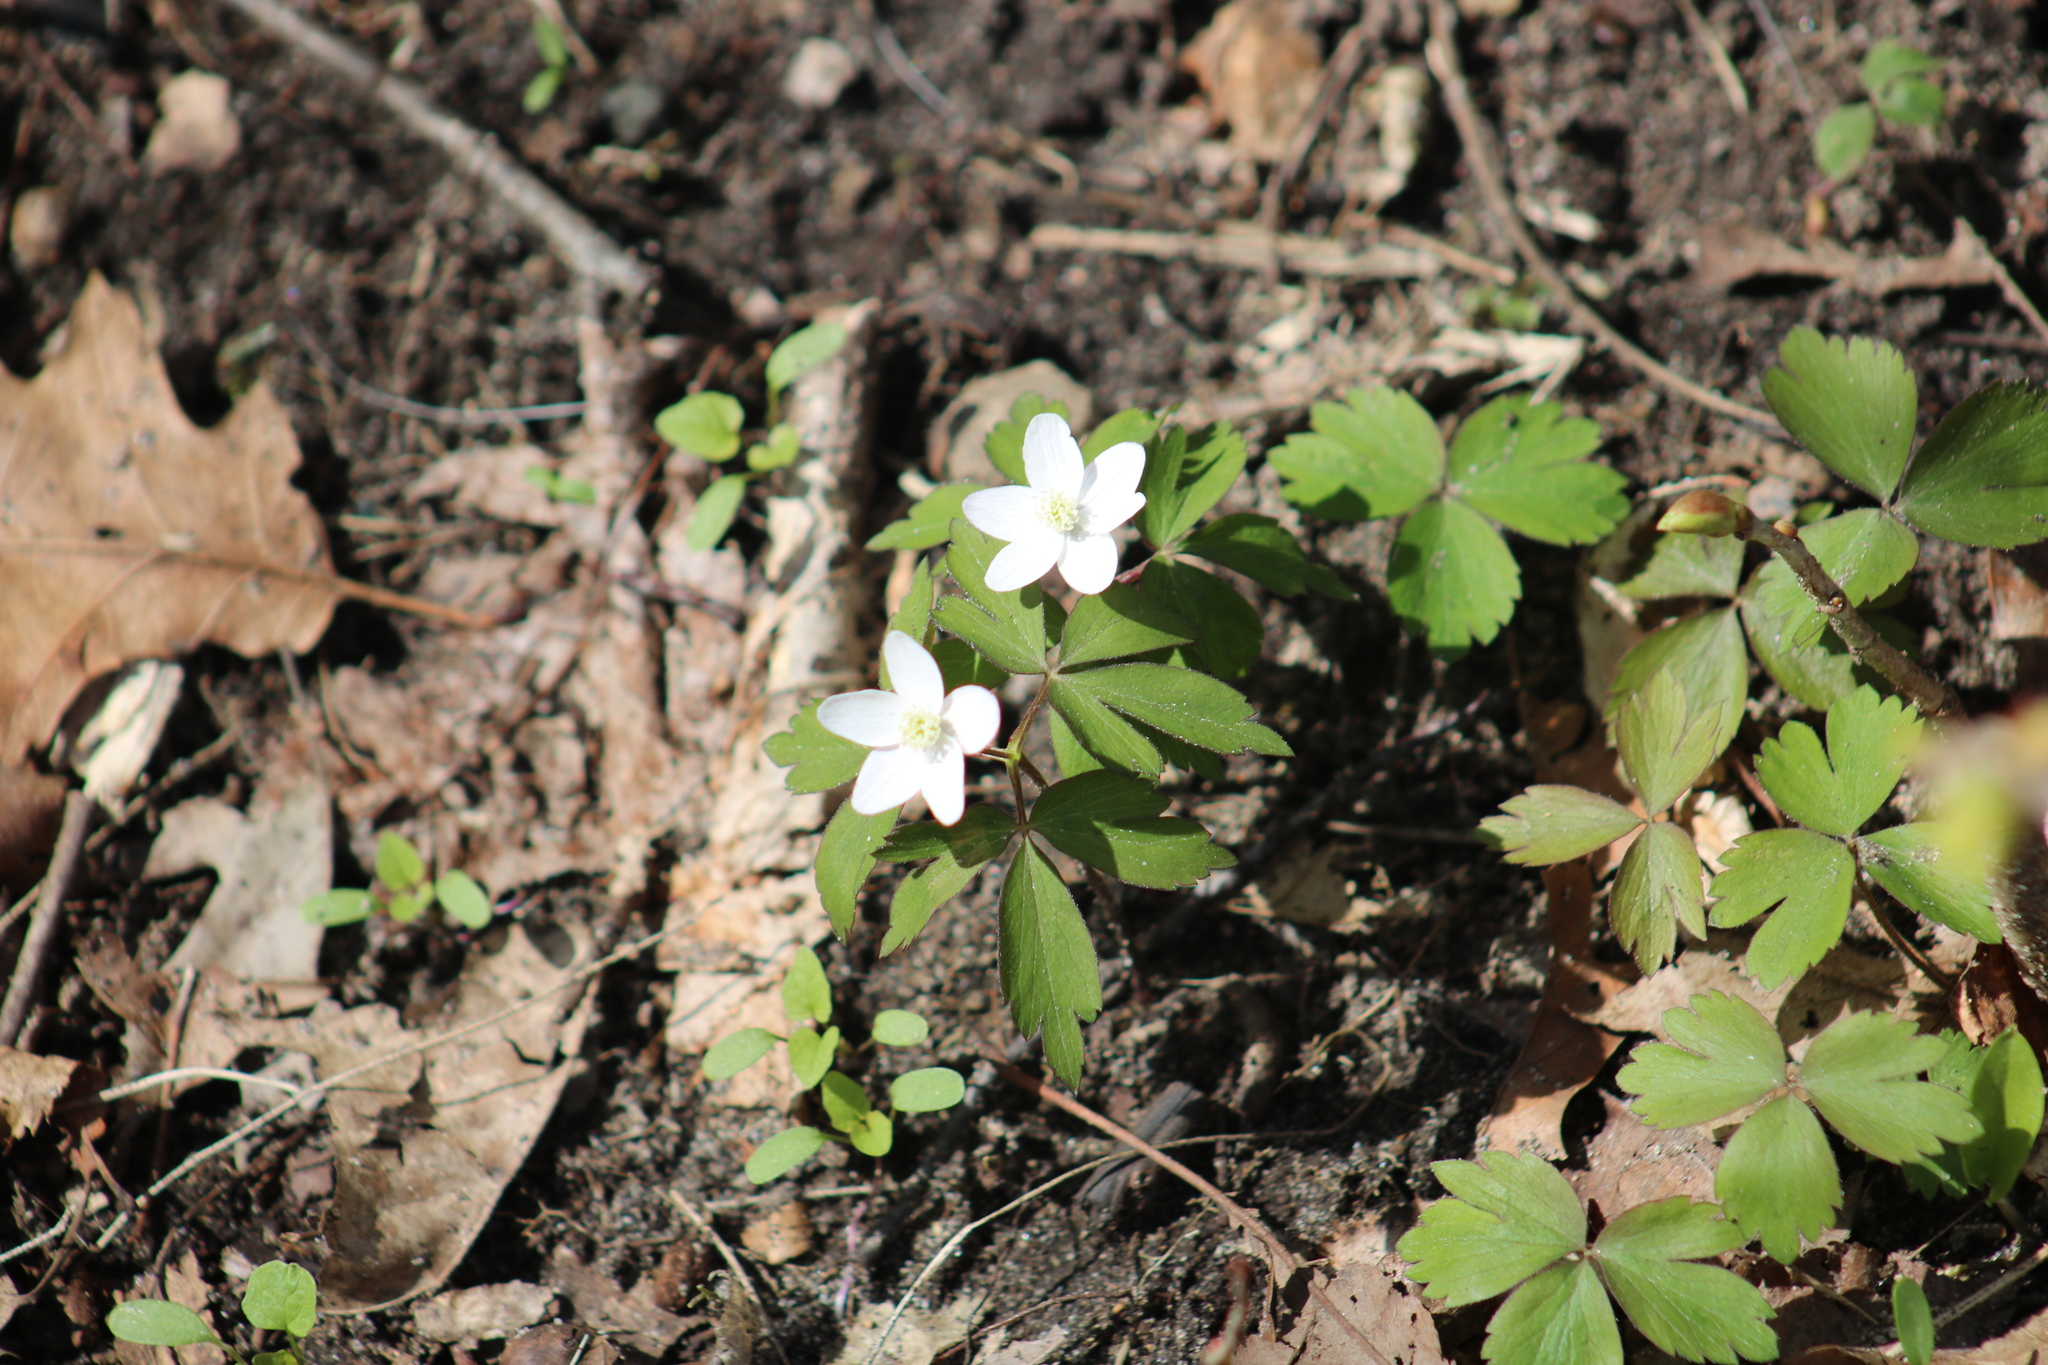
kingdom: Plantae
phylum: Tracheophyta
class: Magnoliopsida
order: Ranunculales
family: Ranunculaceae
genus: Anemone
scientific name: Anemone quinquefolia
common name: Wood anemone
